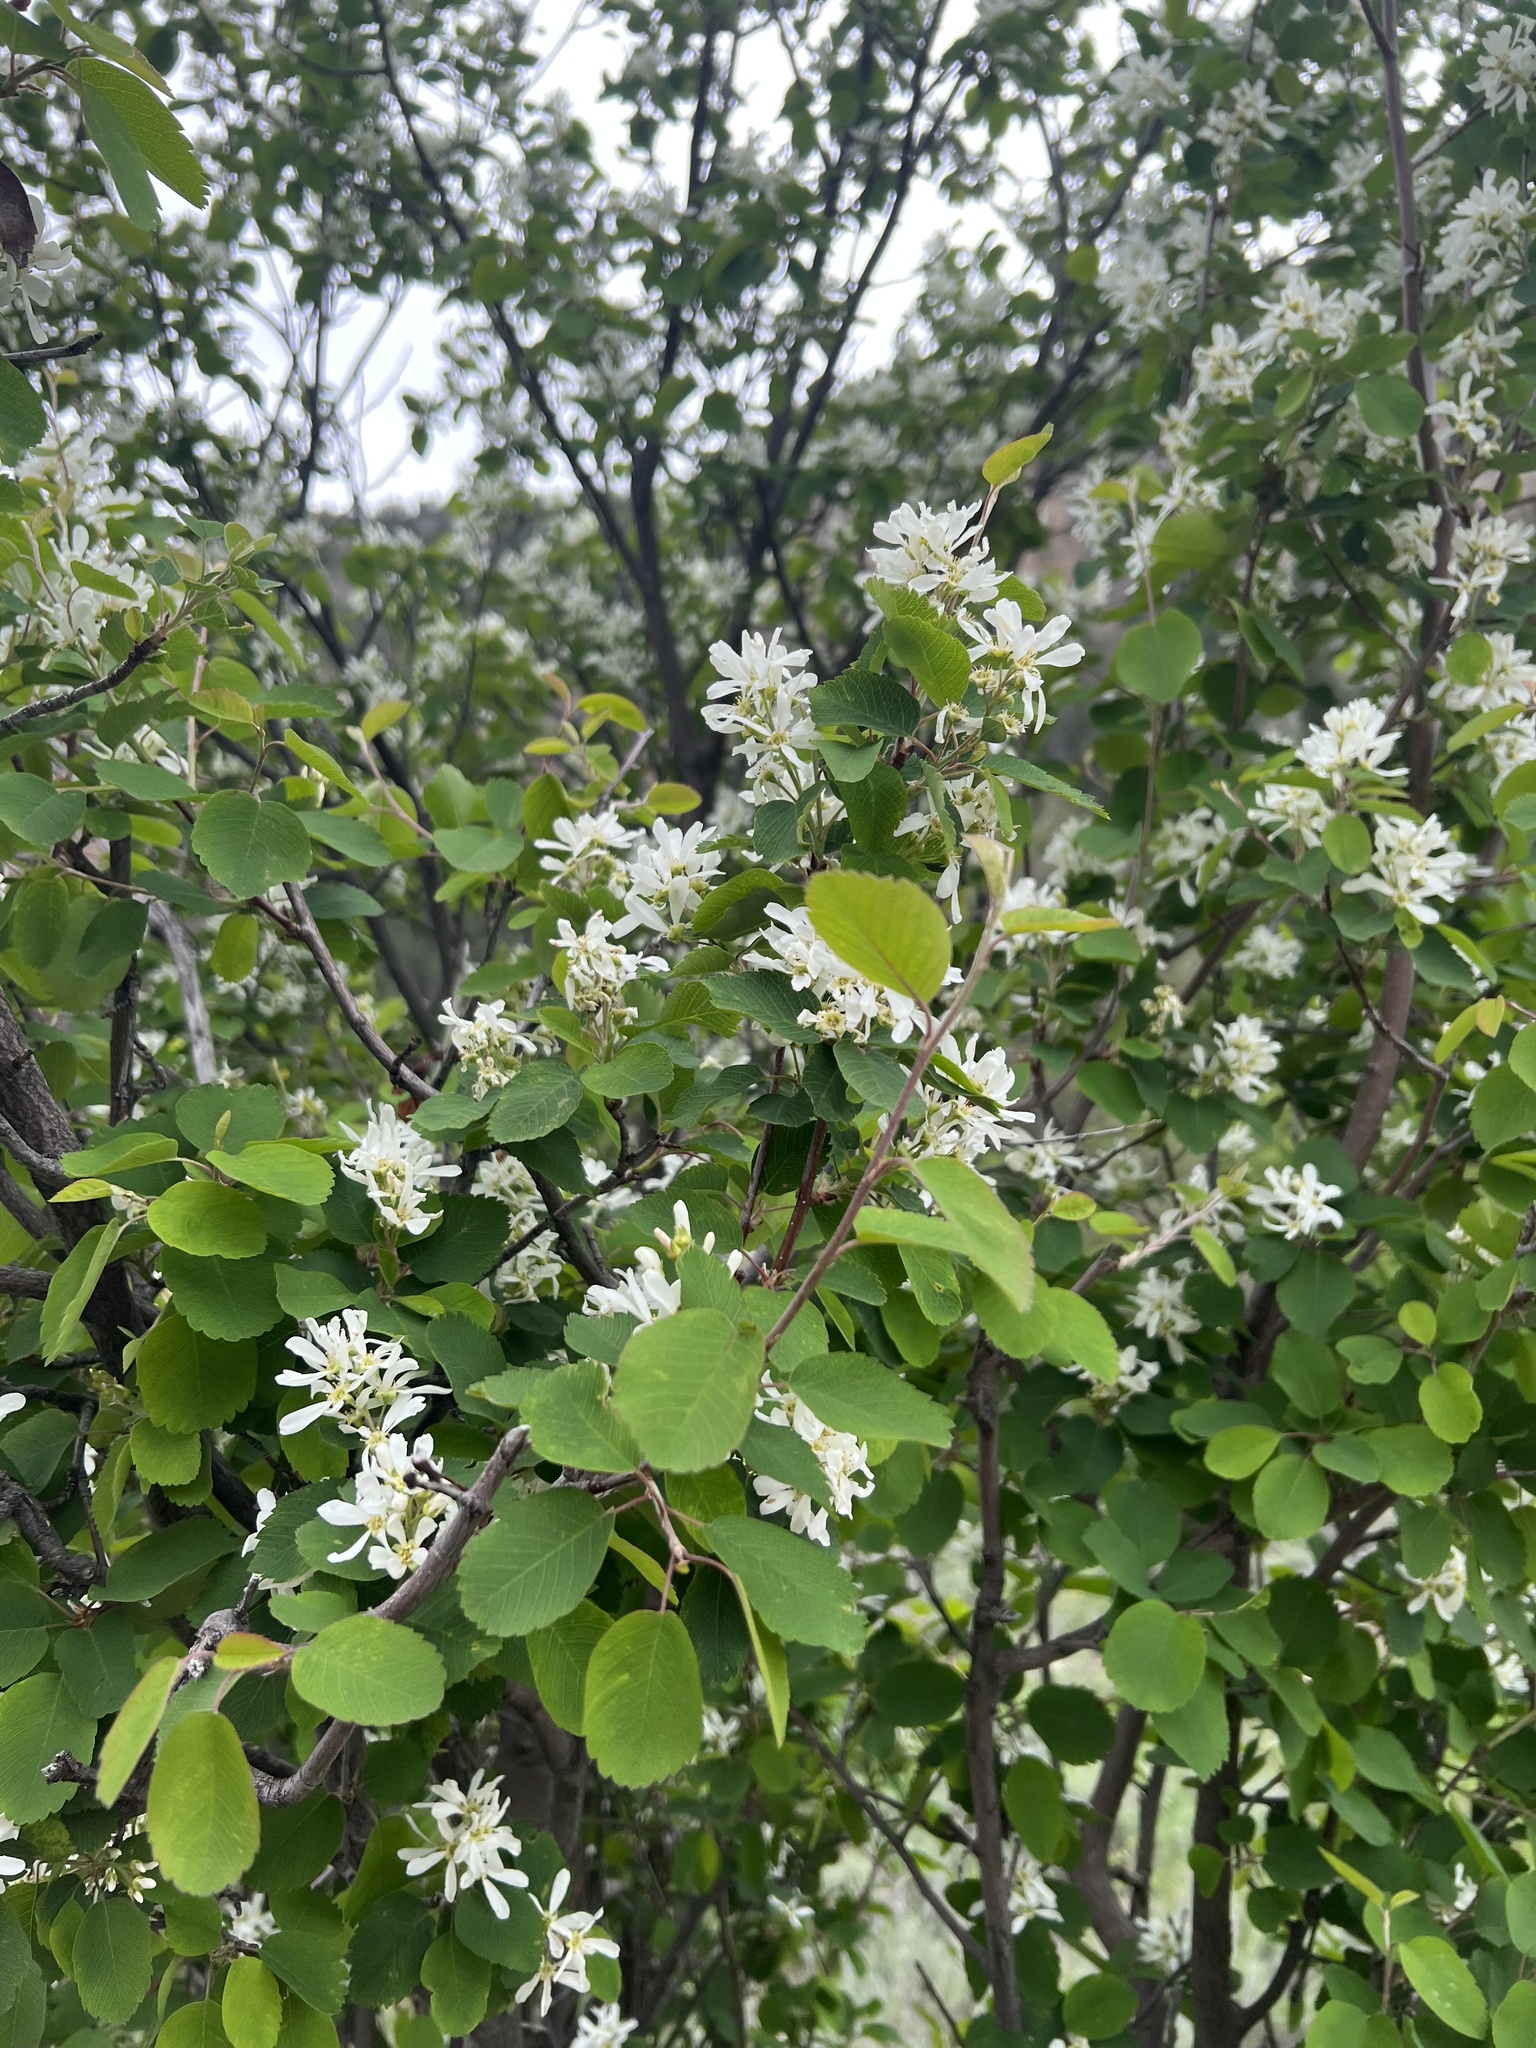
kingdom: Plantae
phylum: Tracheophyta
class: Magnoliopsida
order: Rosales
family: Rosaceae
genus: Amelanchier
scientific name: Amelanchier utahensis
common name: Utah serviceberry
